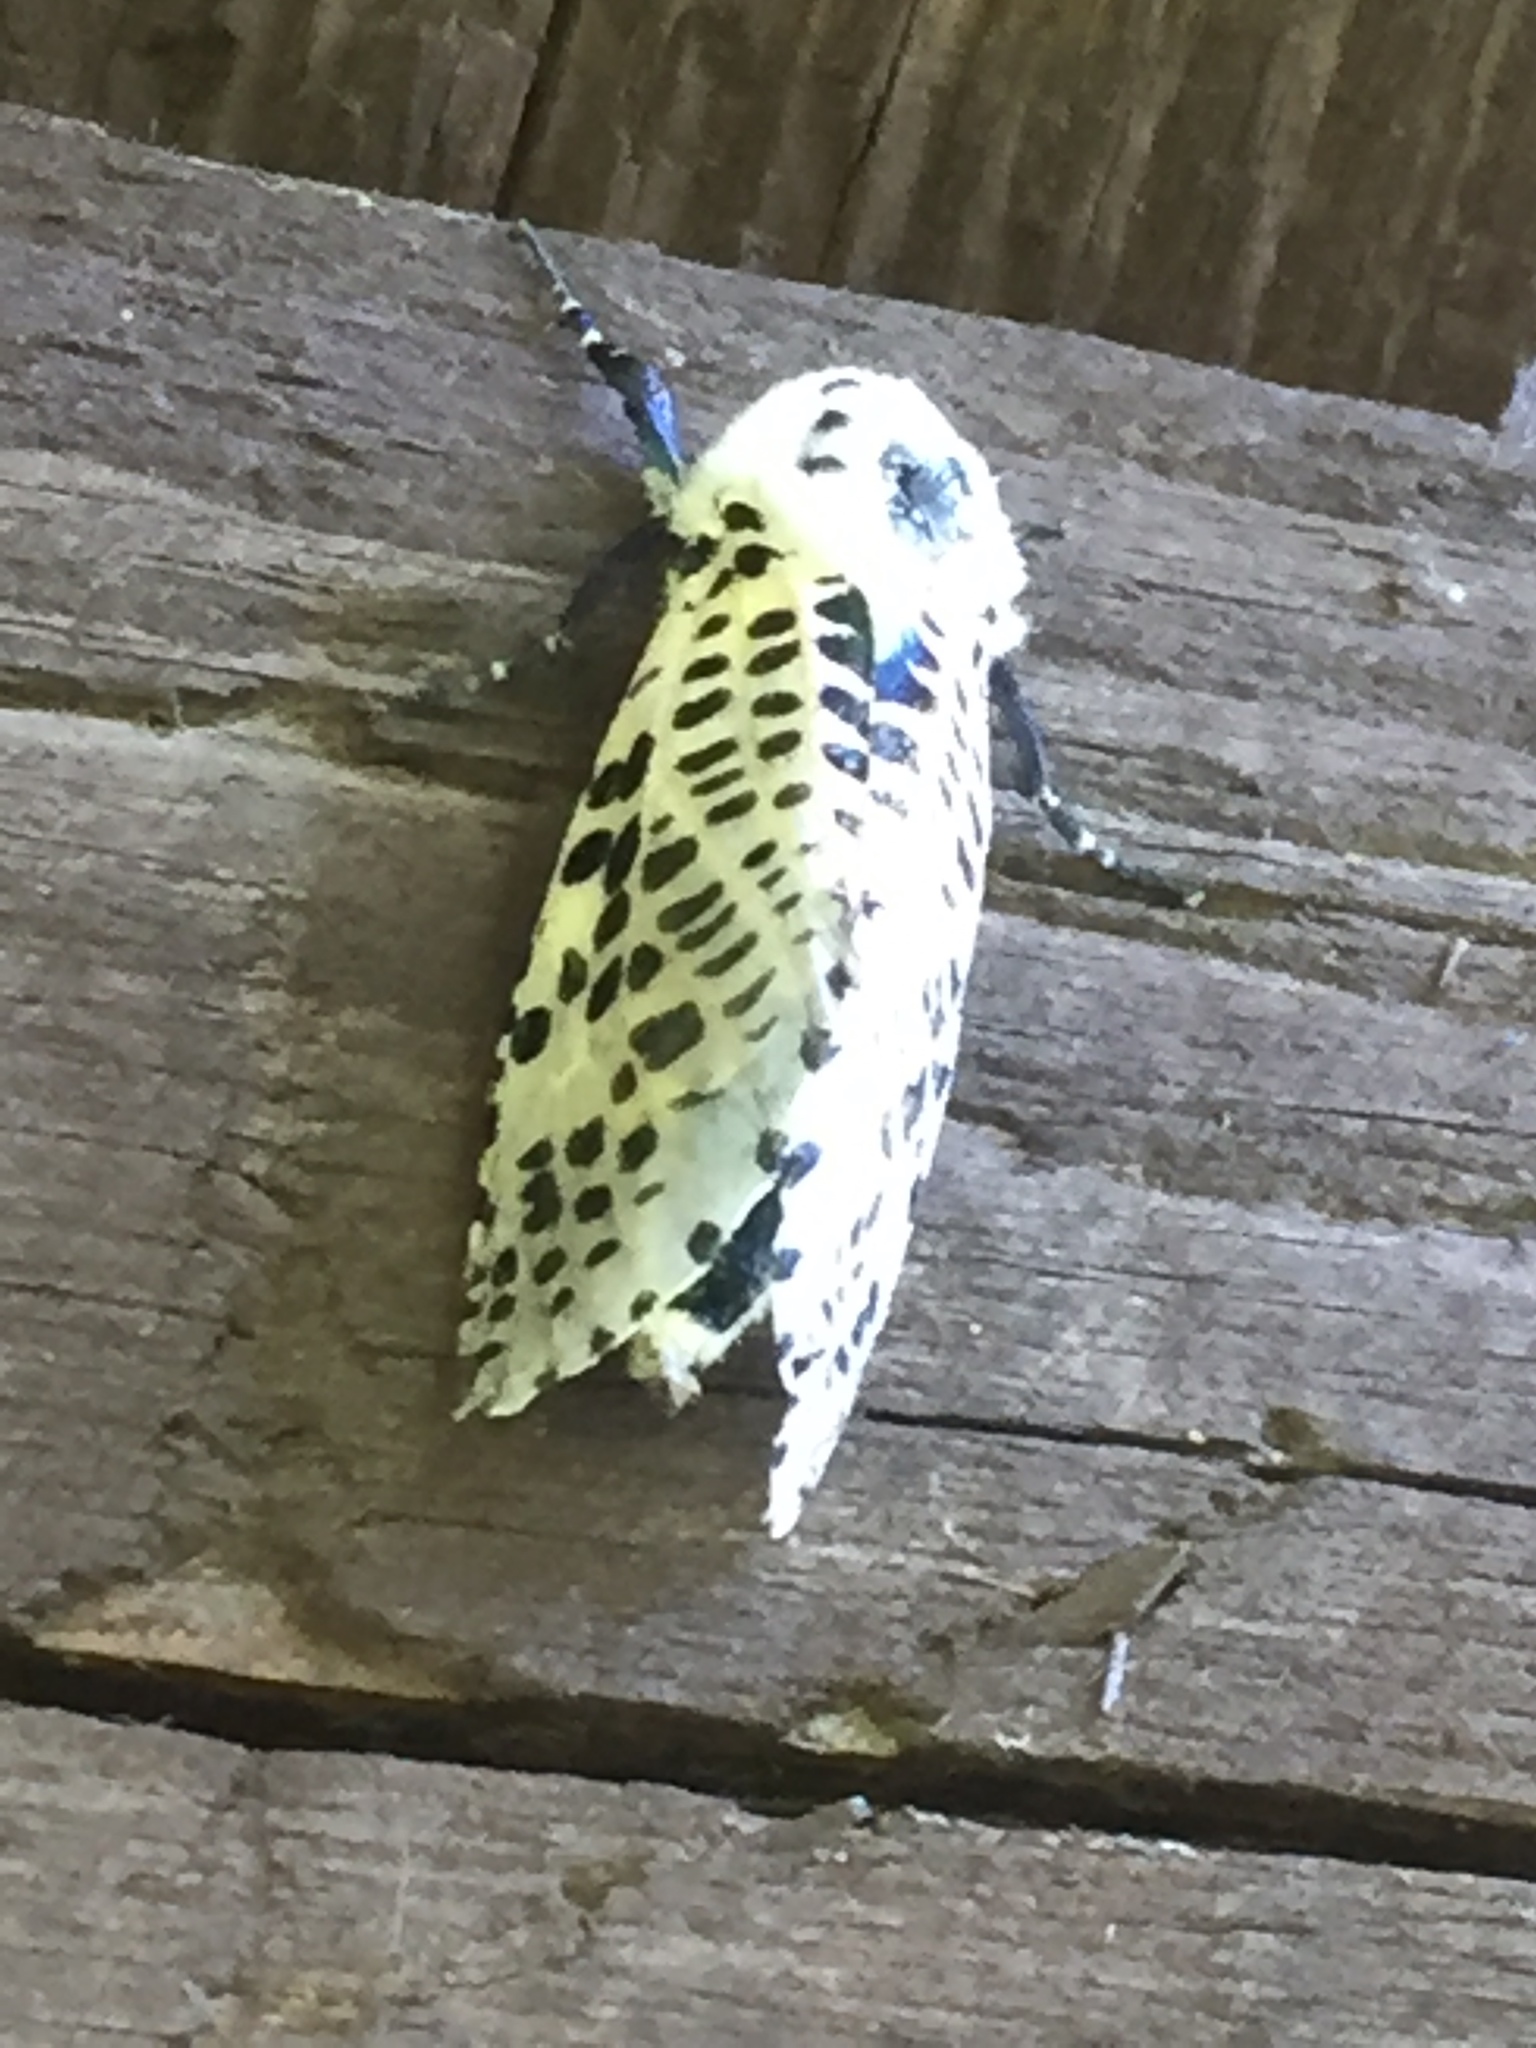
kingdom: Animalia
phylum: Arthropoda
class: Insecta
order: Lepidoptera
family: Cossidae
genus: Zeuzera
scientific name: Zeuzera pyrina
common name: Leopard moth
